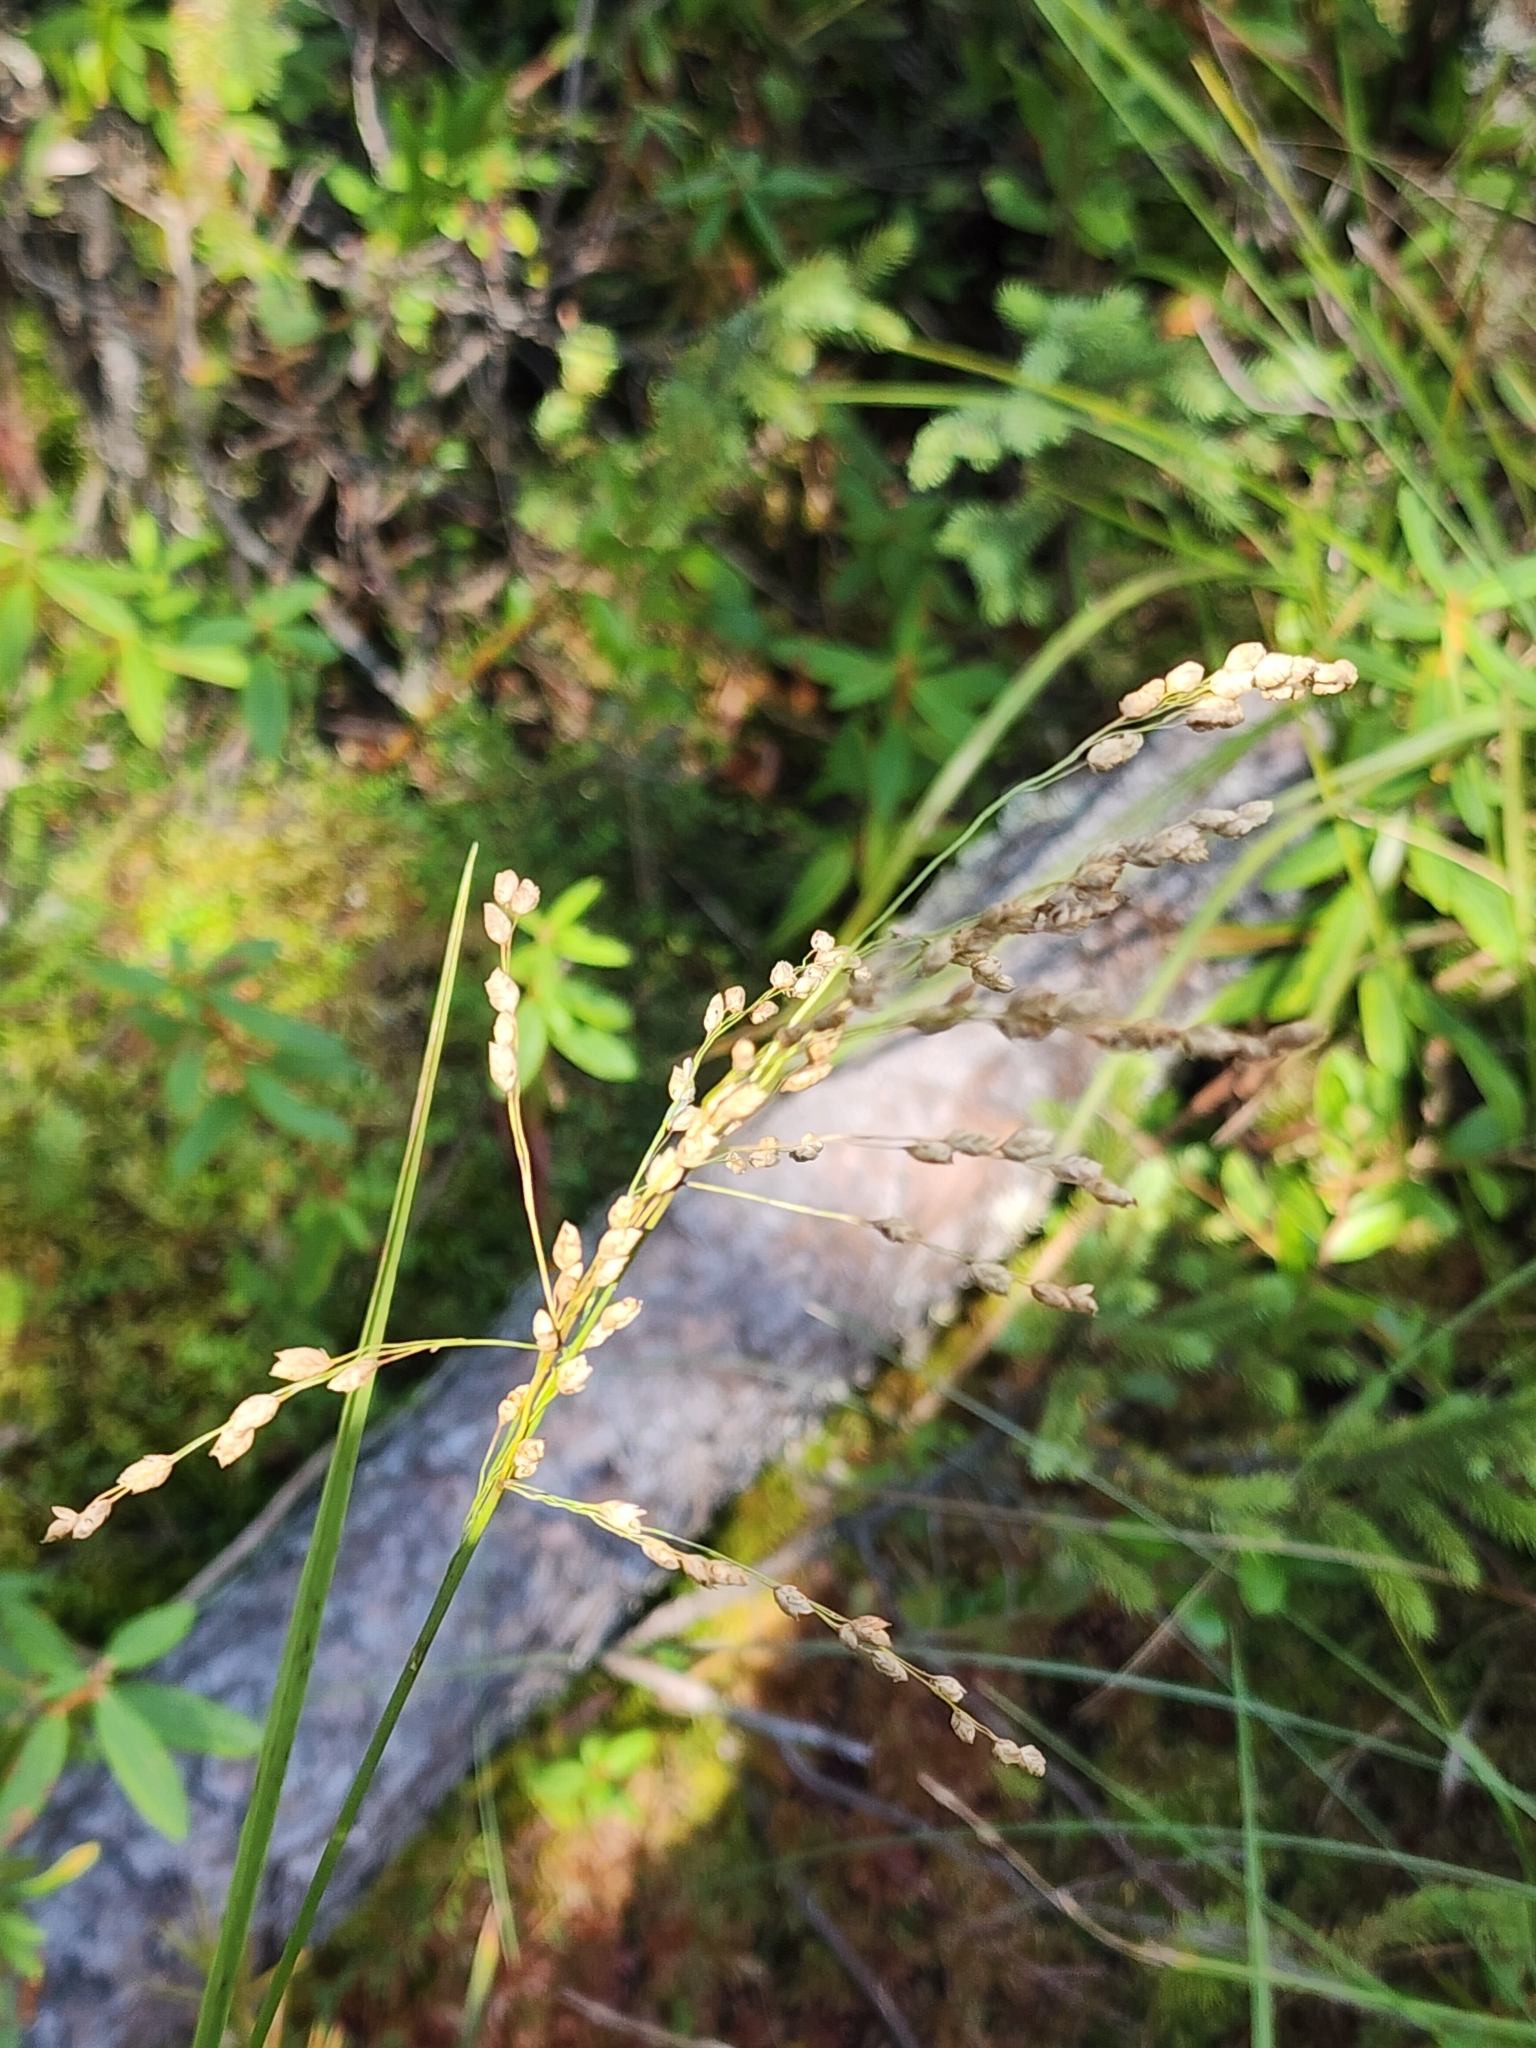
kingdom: Plantae
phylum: Tracheophyta
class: Liliopsida
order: Poales
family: Poaceae
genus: Glyceria
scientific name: Glyceria canadensis
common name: Canada mannagrass
